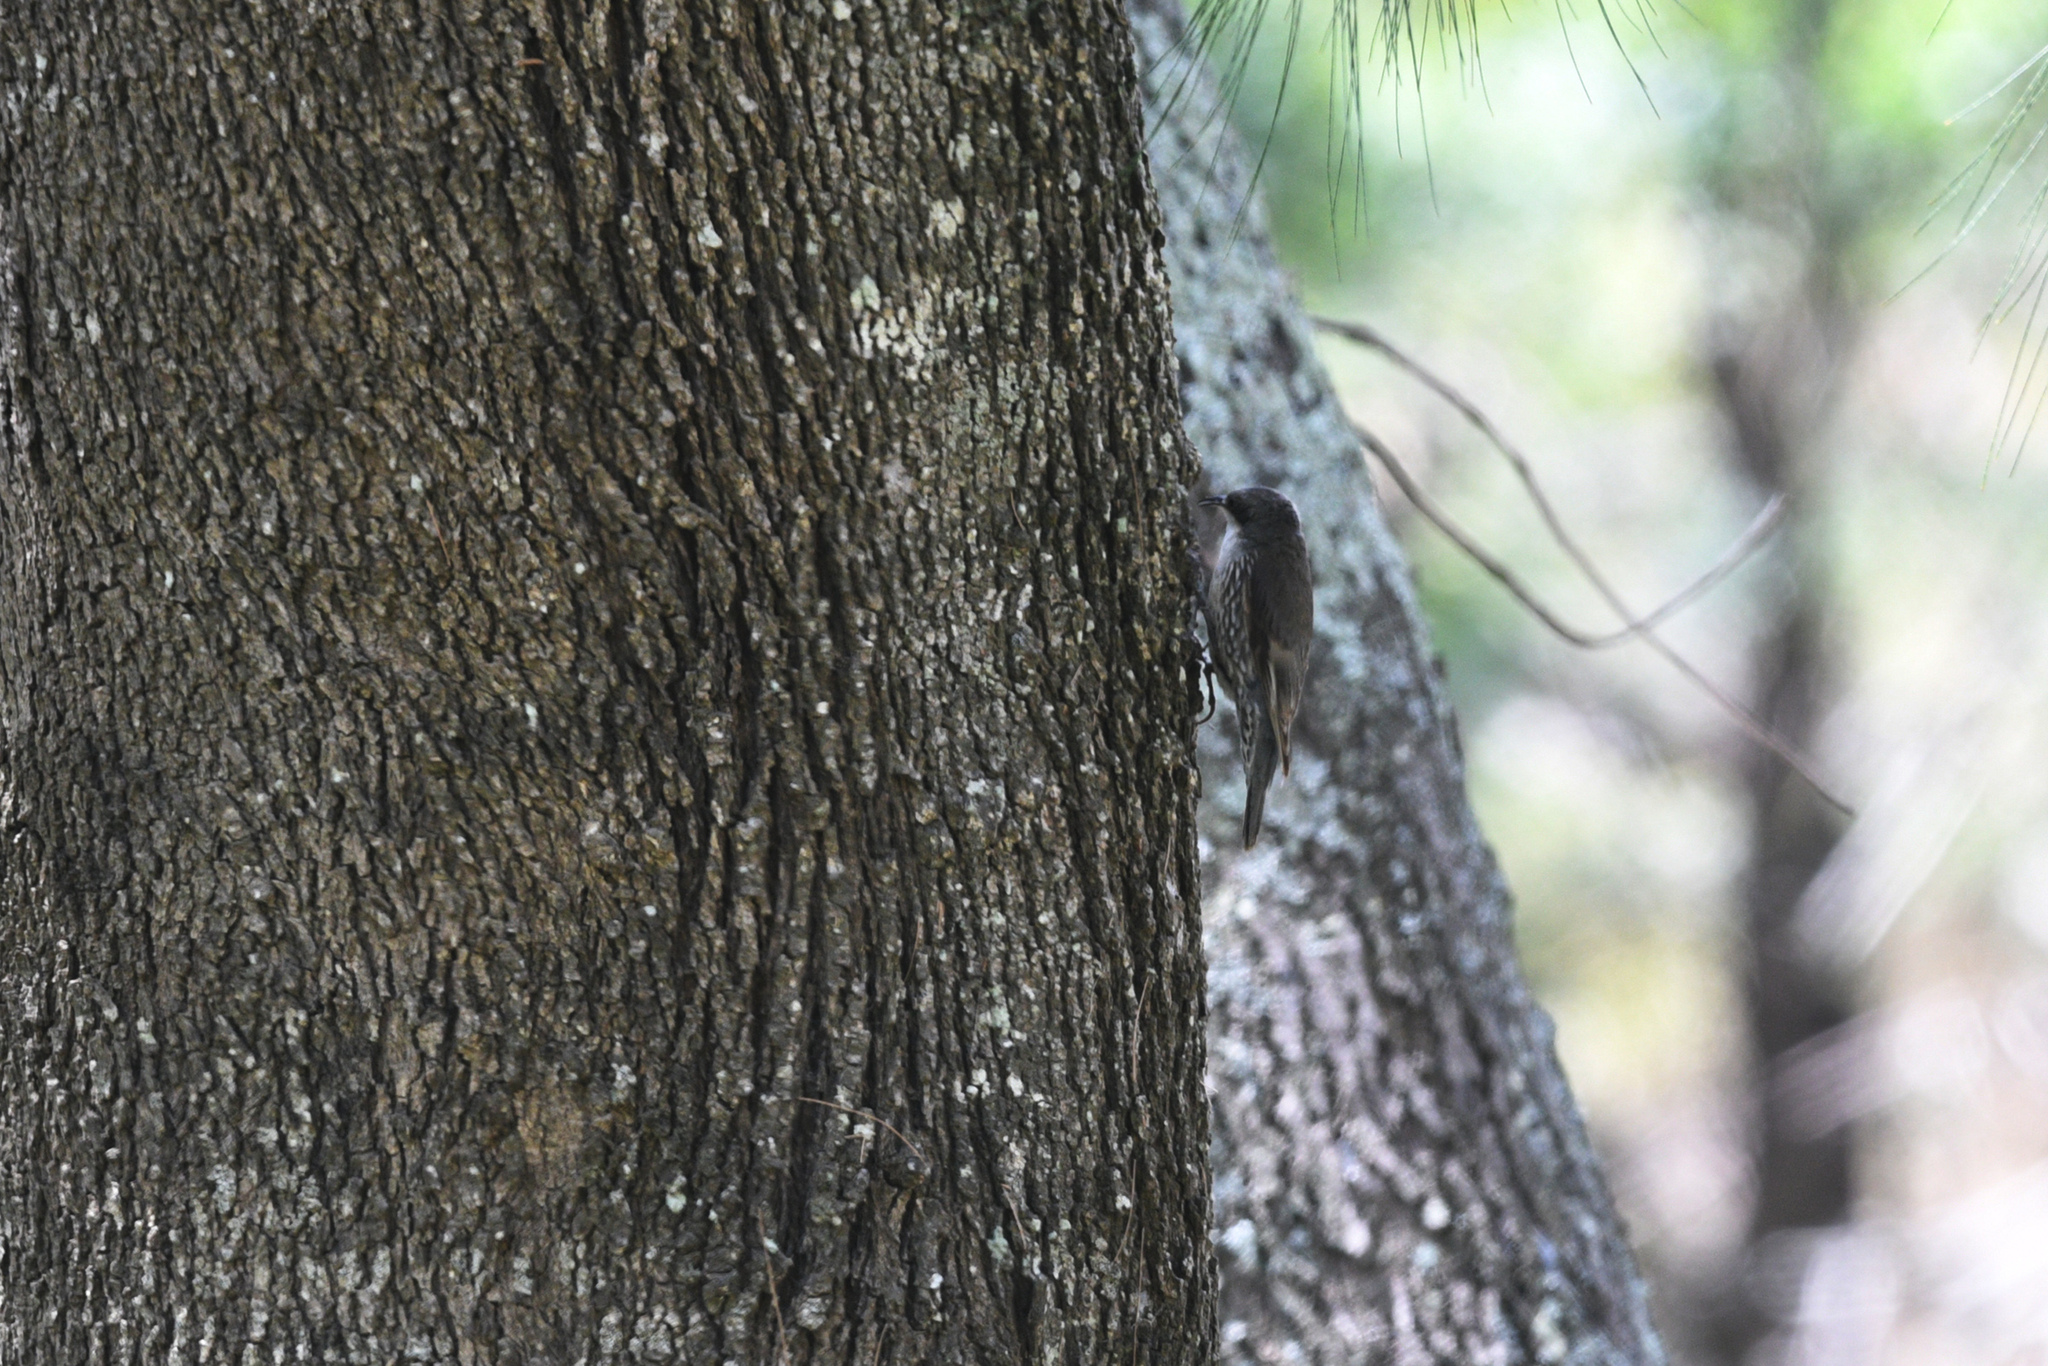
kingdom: Animalia
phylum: Chordata
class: Aves
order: Passeriformes
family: Climacteridae
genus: Cormobates
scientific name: Cormobates leucophaea
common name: White-throated treecreeper
